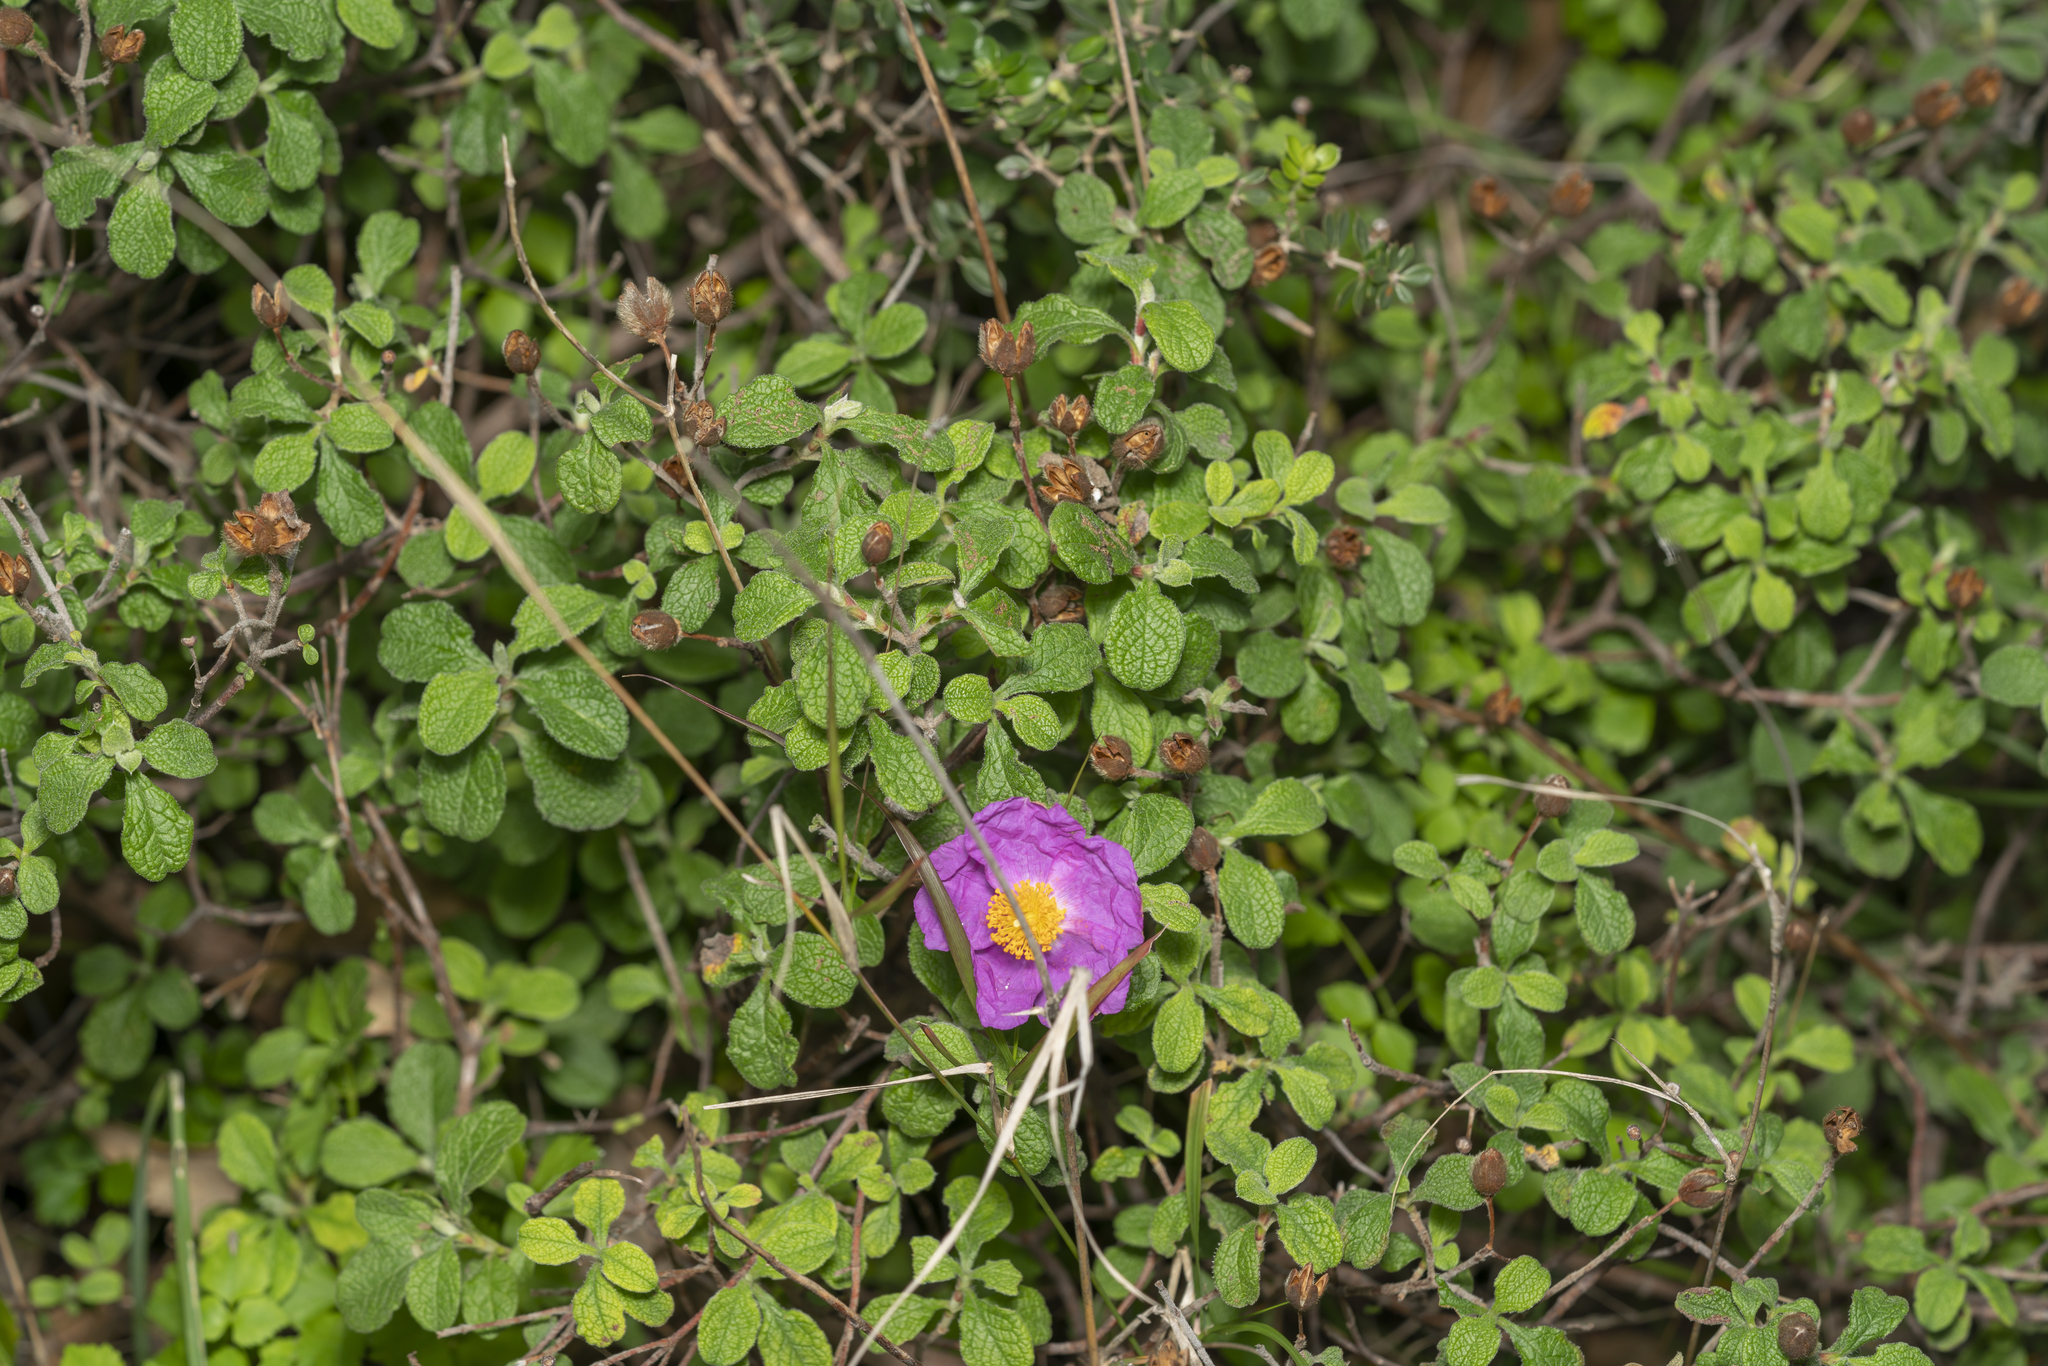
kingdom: Plantae
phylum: Tracheophyta
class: Magnoliopsida
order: Malvales
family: Cistaceae
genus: Cistus
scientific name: Cistus creticus
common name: Cretan rockrose
